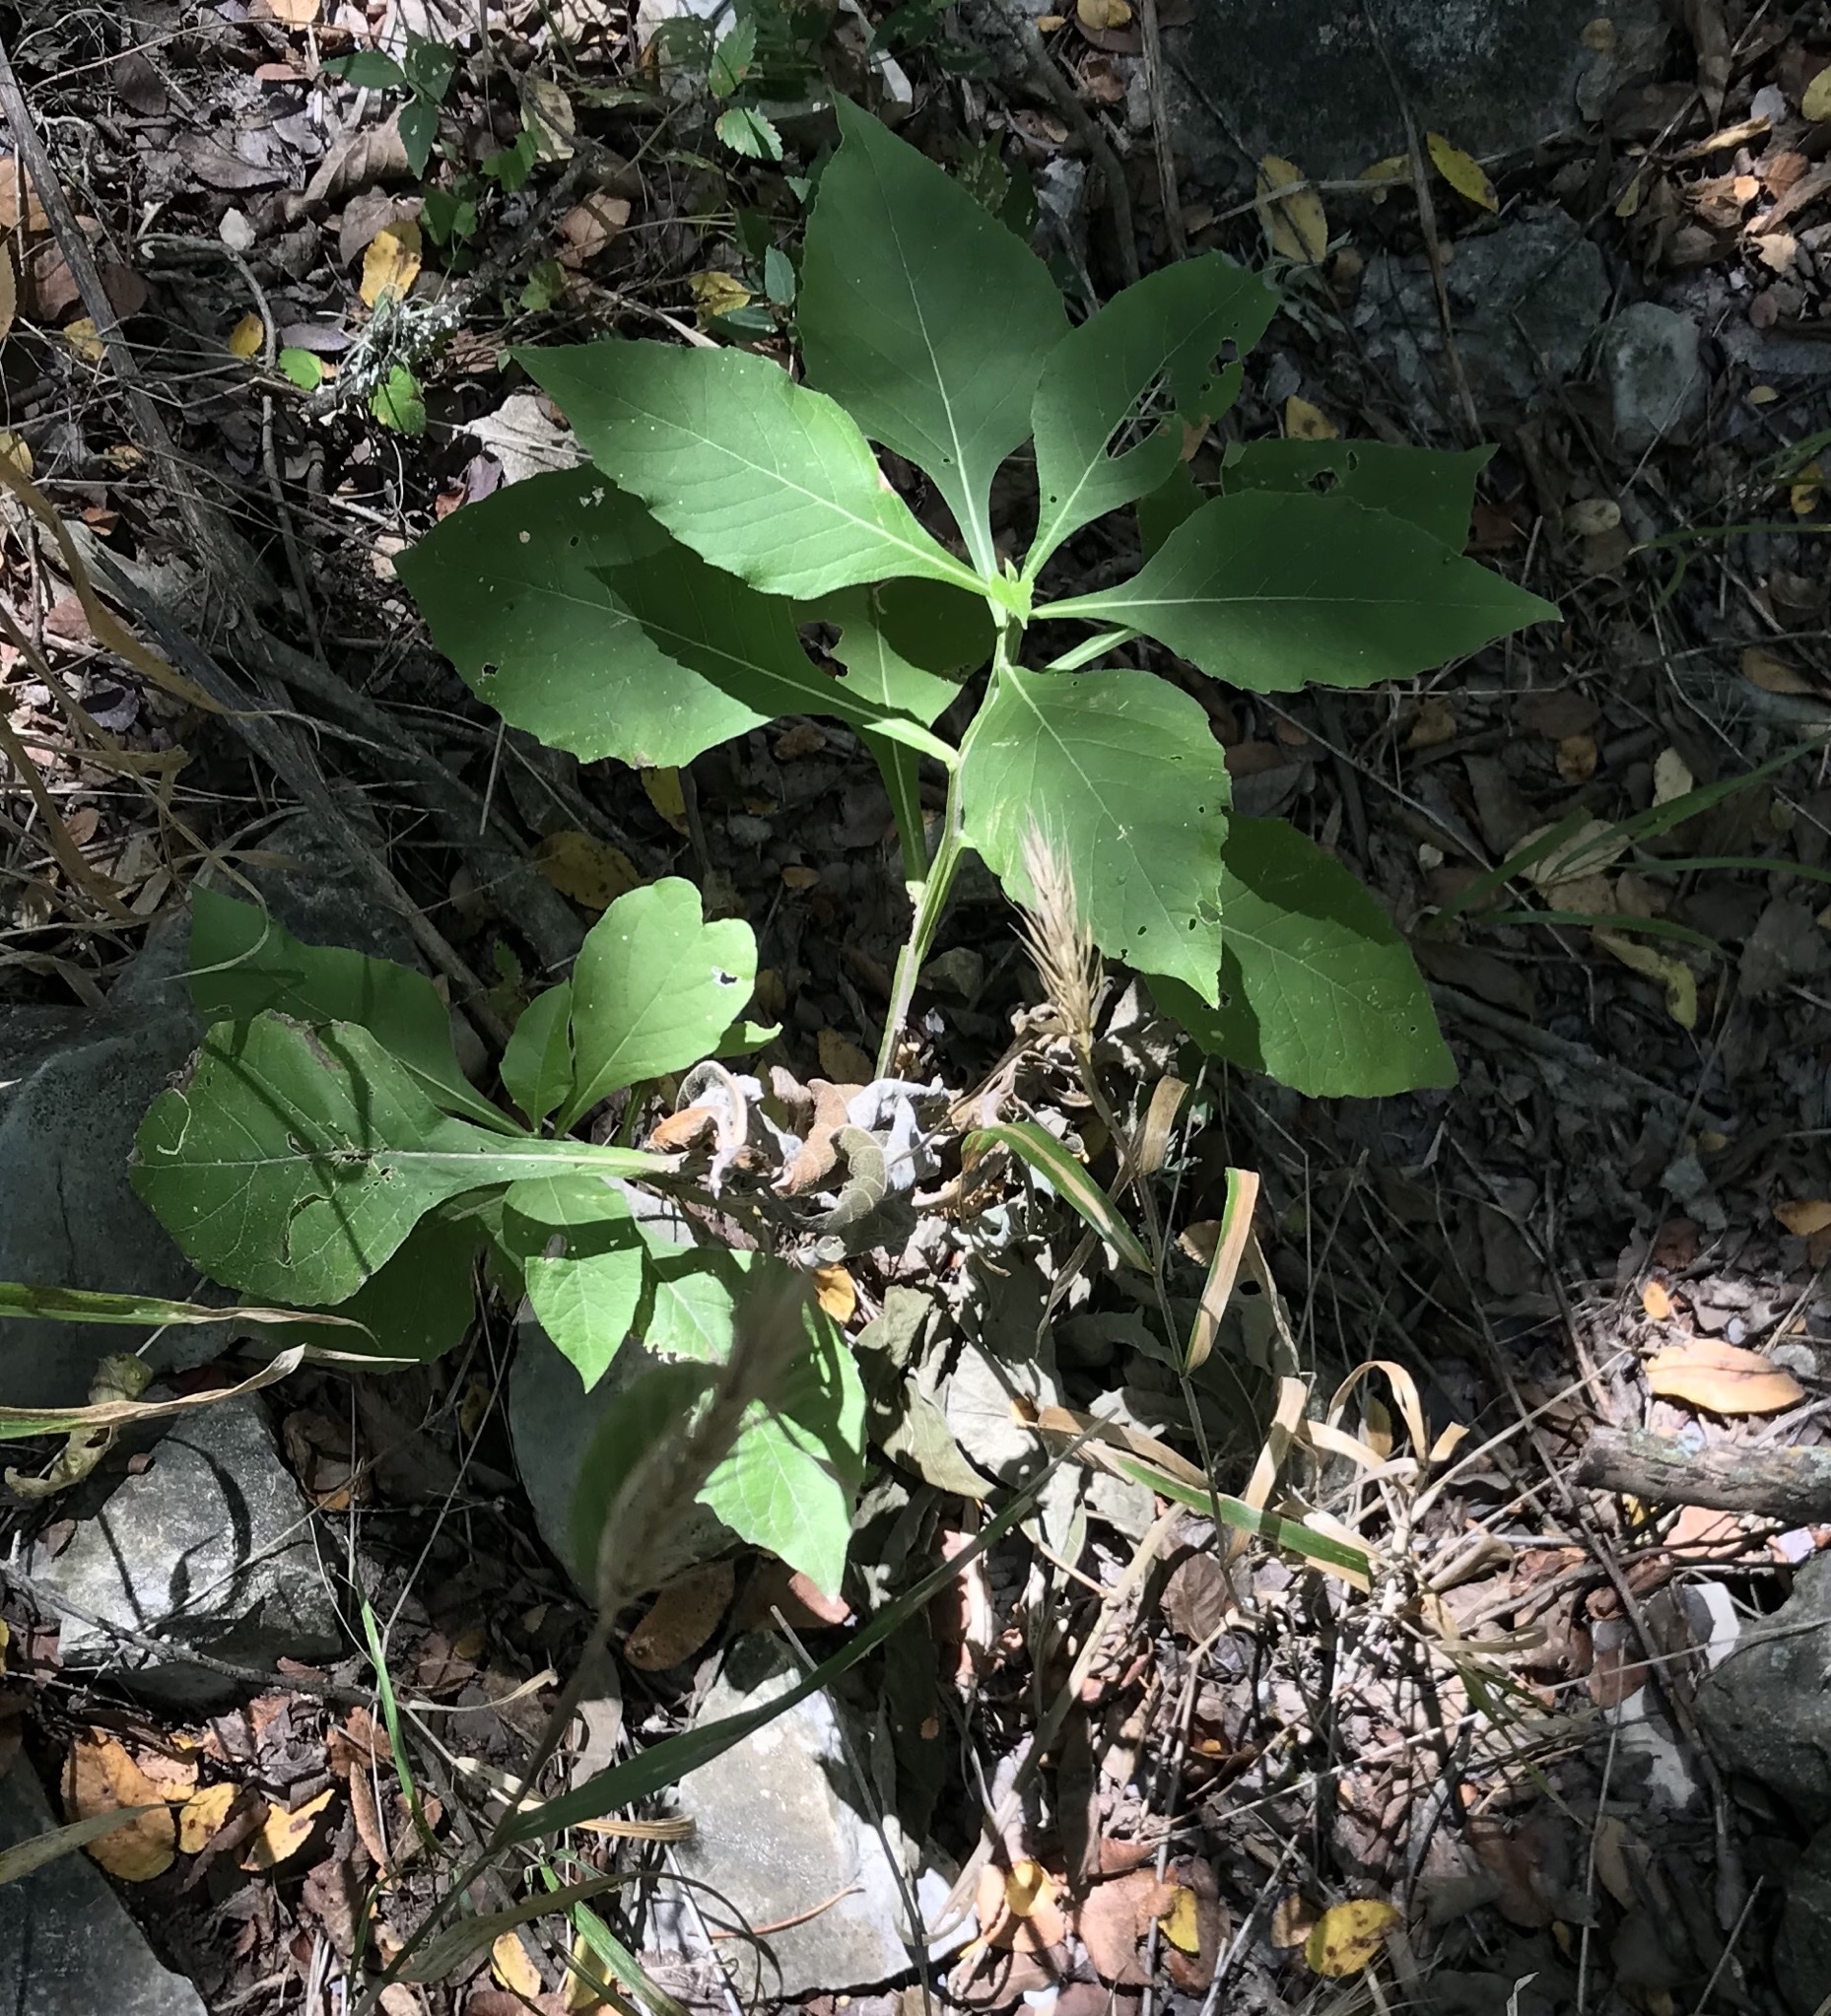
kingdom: Plantae
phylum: Tracheophyta
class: Magnoliopsida
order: Asterales
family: Asteraceae
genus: Verbesina
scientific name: Verbesina virginica
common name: Frostweed
